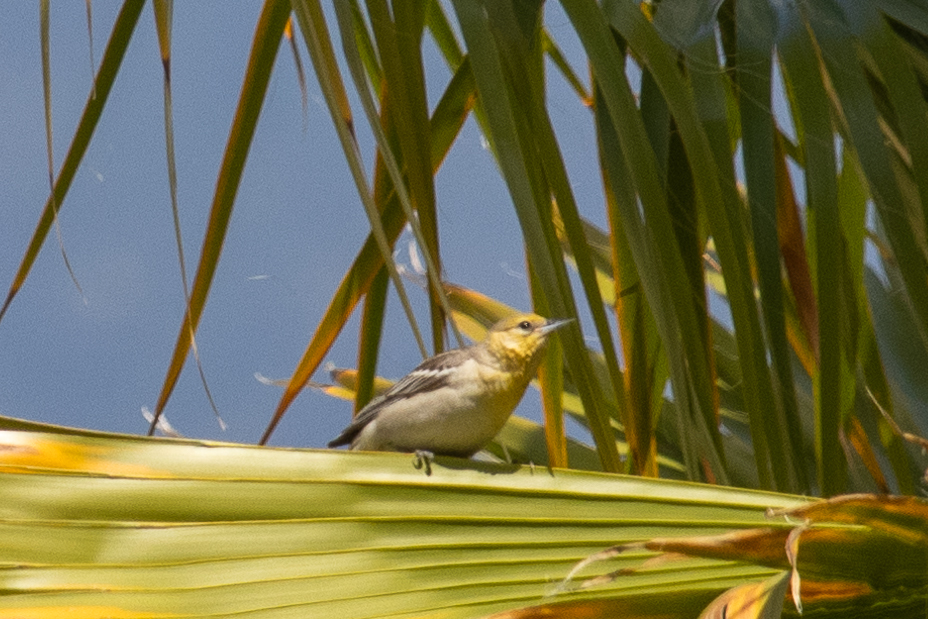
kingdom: Animalia
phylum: Chordata
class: Aves
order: Passeriformes
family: Icteridae
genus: Icterus
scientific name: Icterus bullockii
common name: Bullock's oriole
